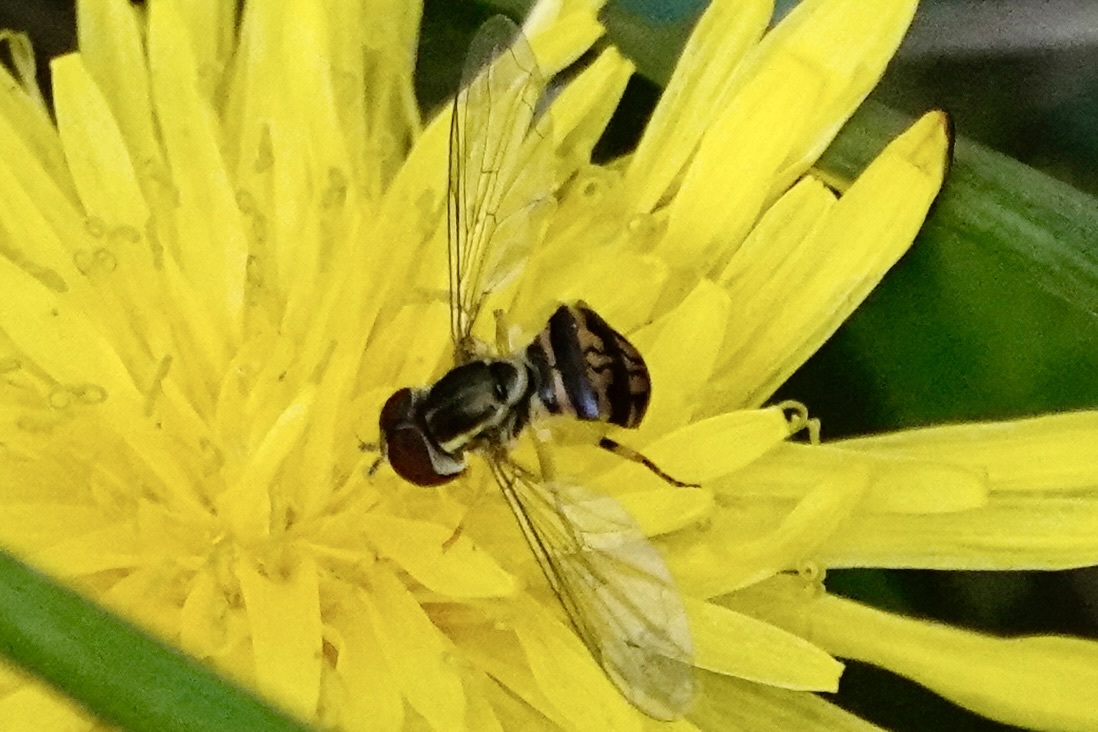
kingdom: Animalia
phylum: Arthropoda
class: Insecta
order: Diptera
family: Syrphidae
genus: Toxomerus
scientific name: Toxomerus geminatus
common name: Eastern calligrapher
